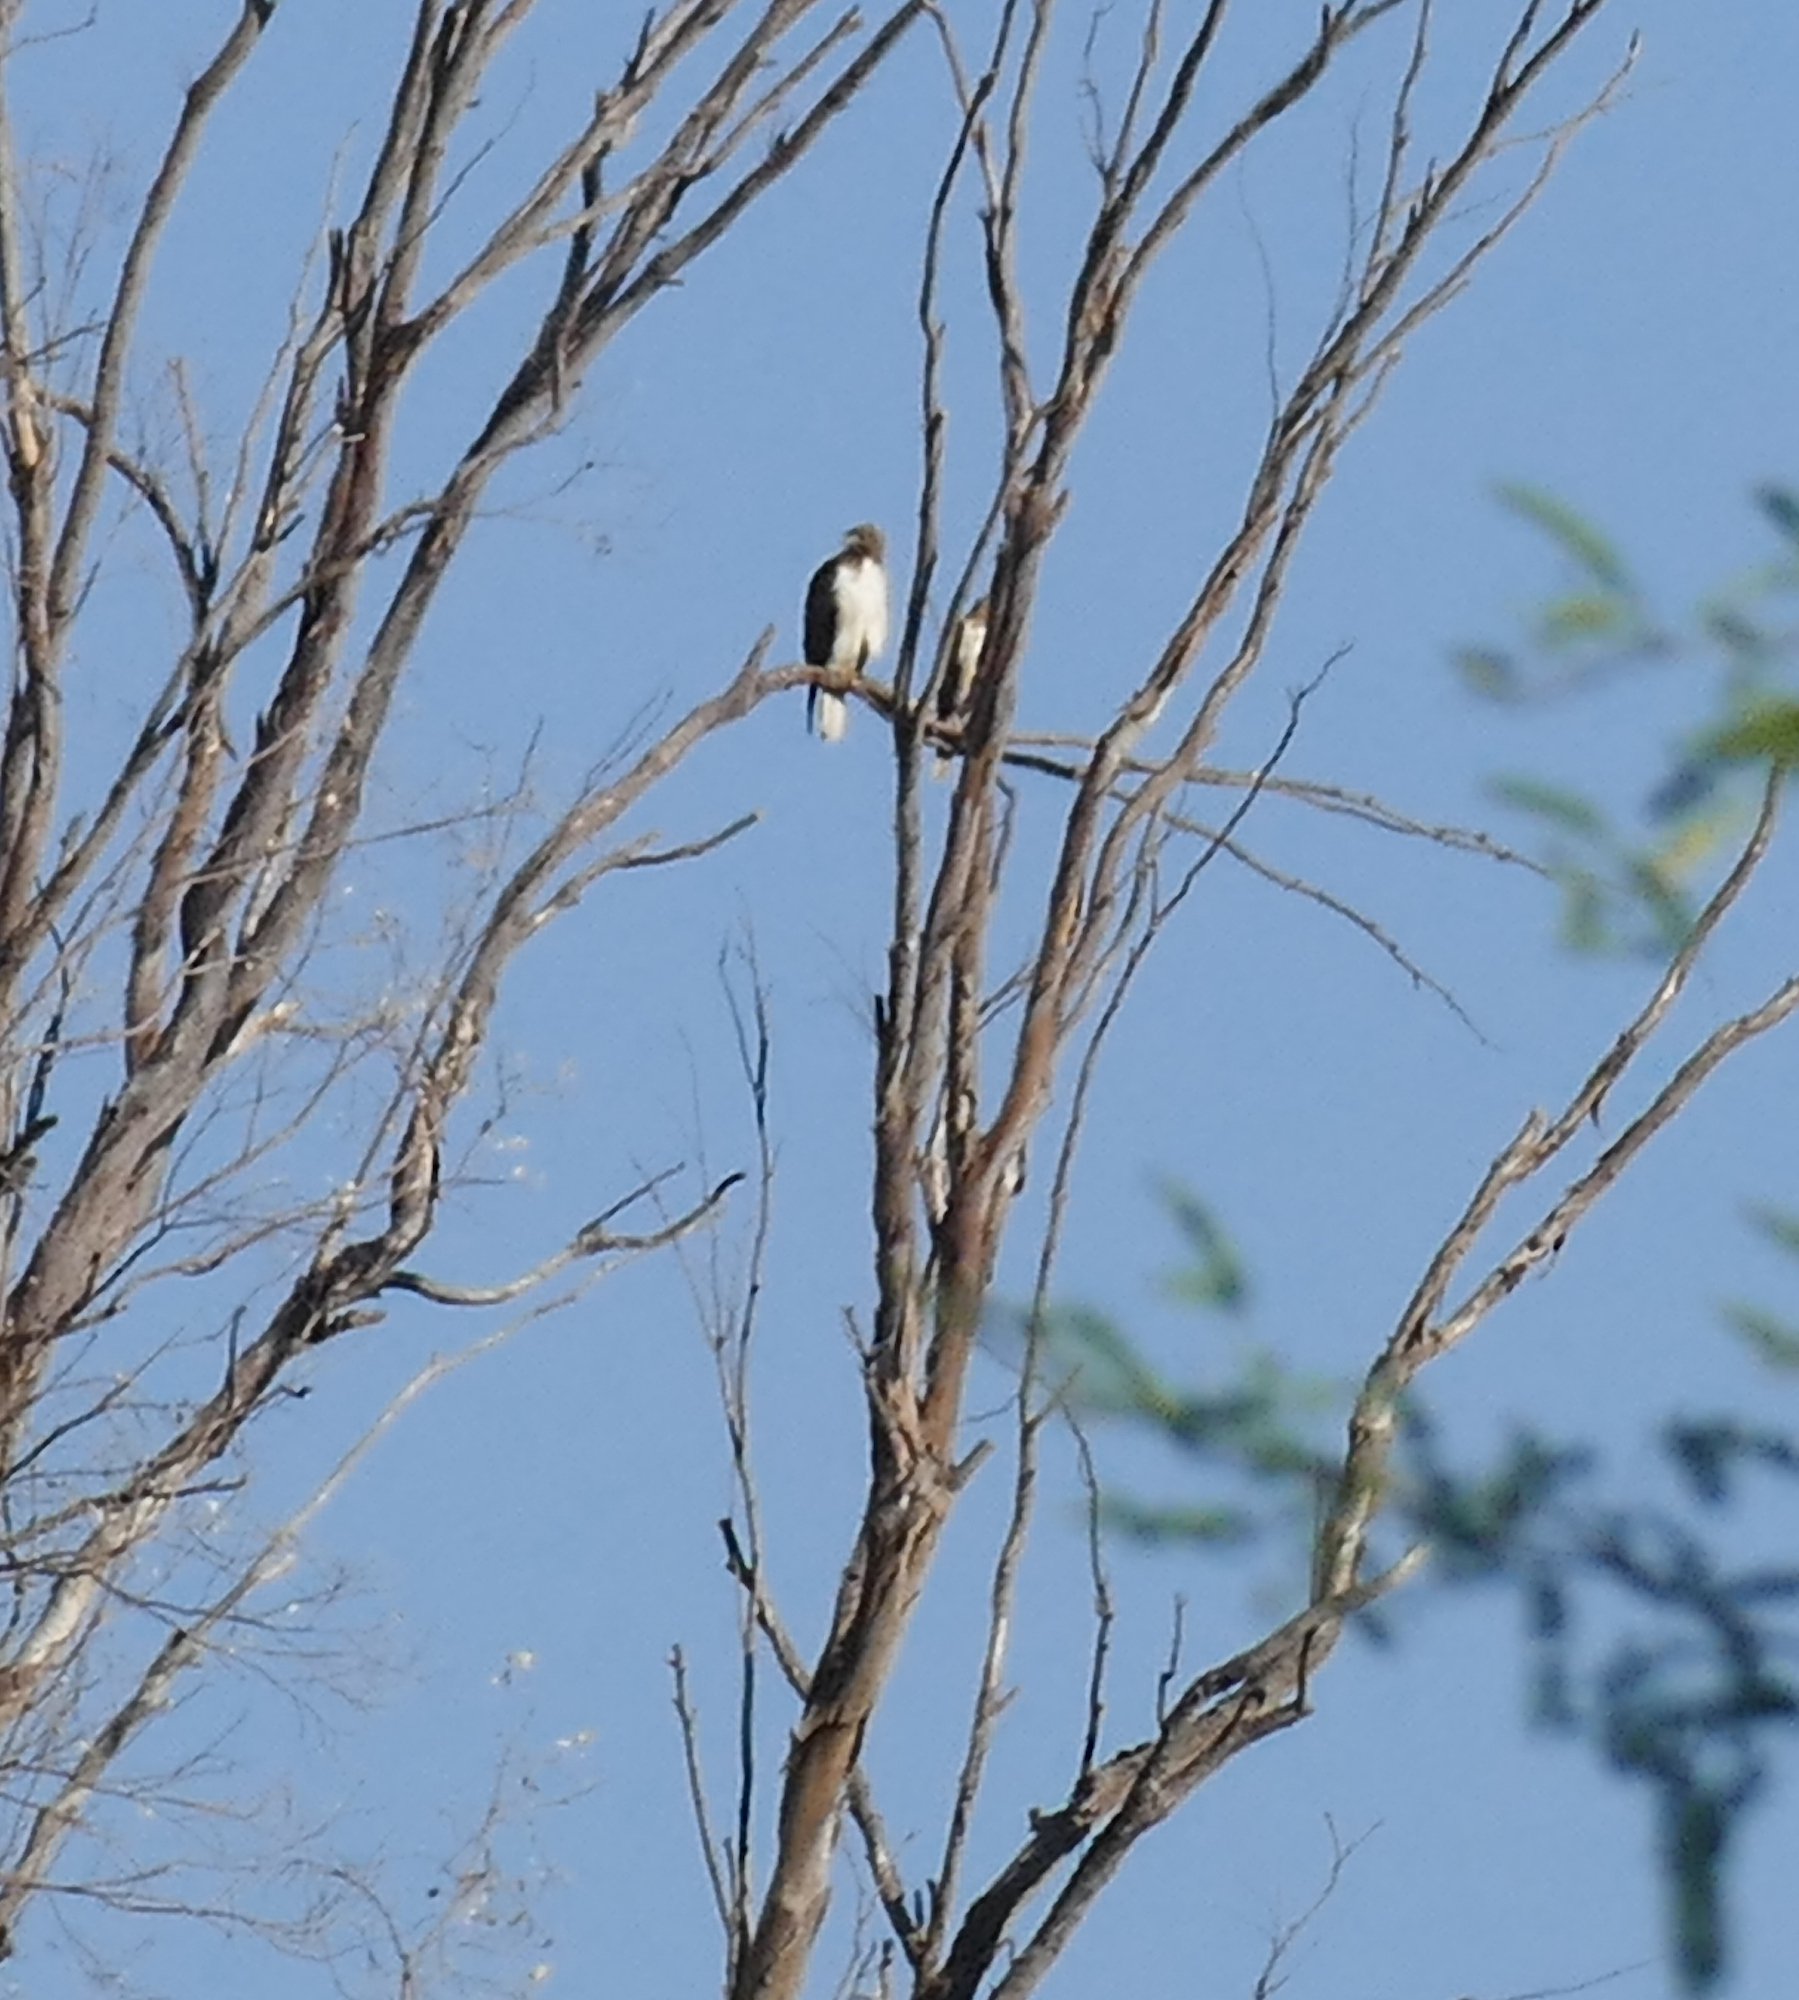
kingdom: Animalia
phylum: Chordata
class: Aves
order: Accipitriformes
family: Accipitridae
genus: Buteo
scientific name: Buteo jamaicensis
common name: Red-tailed hawk
